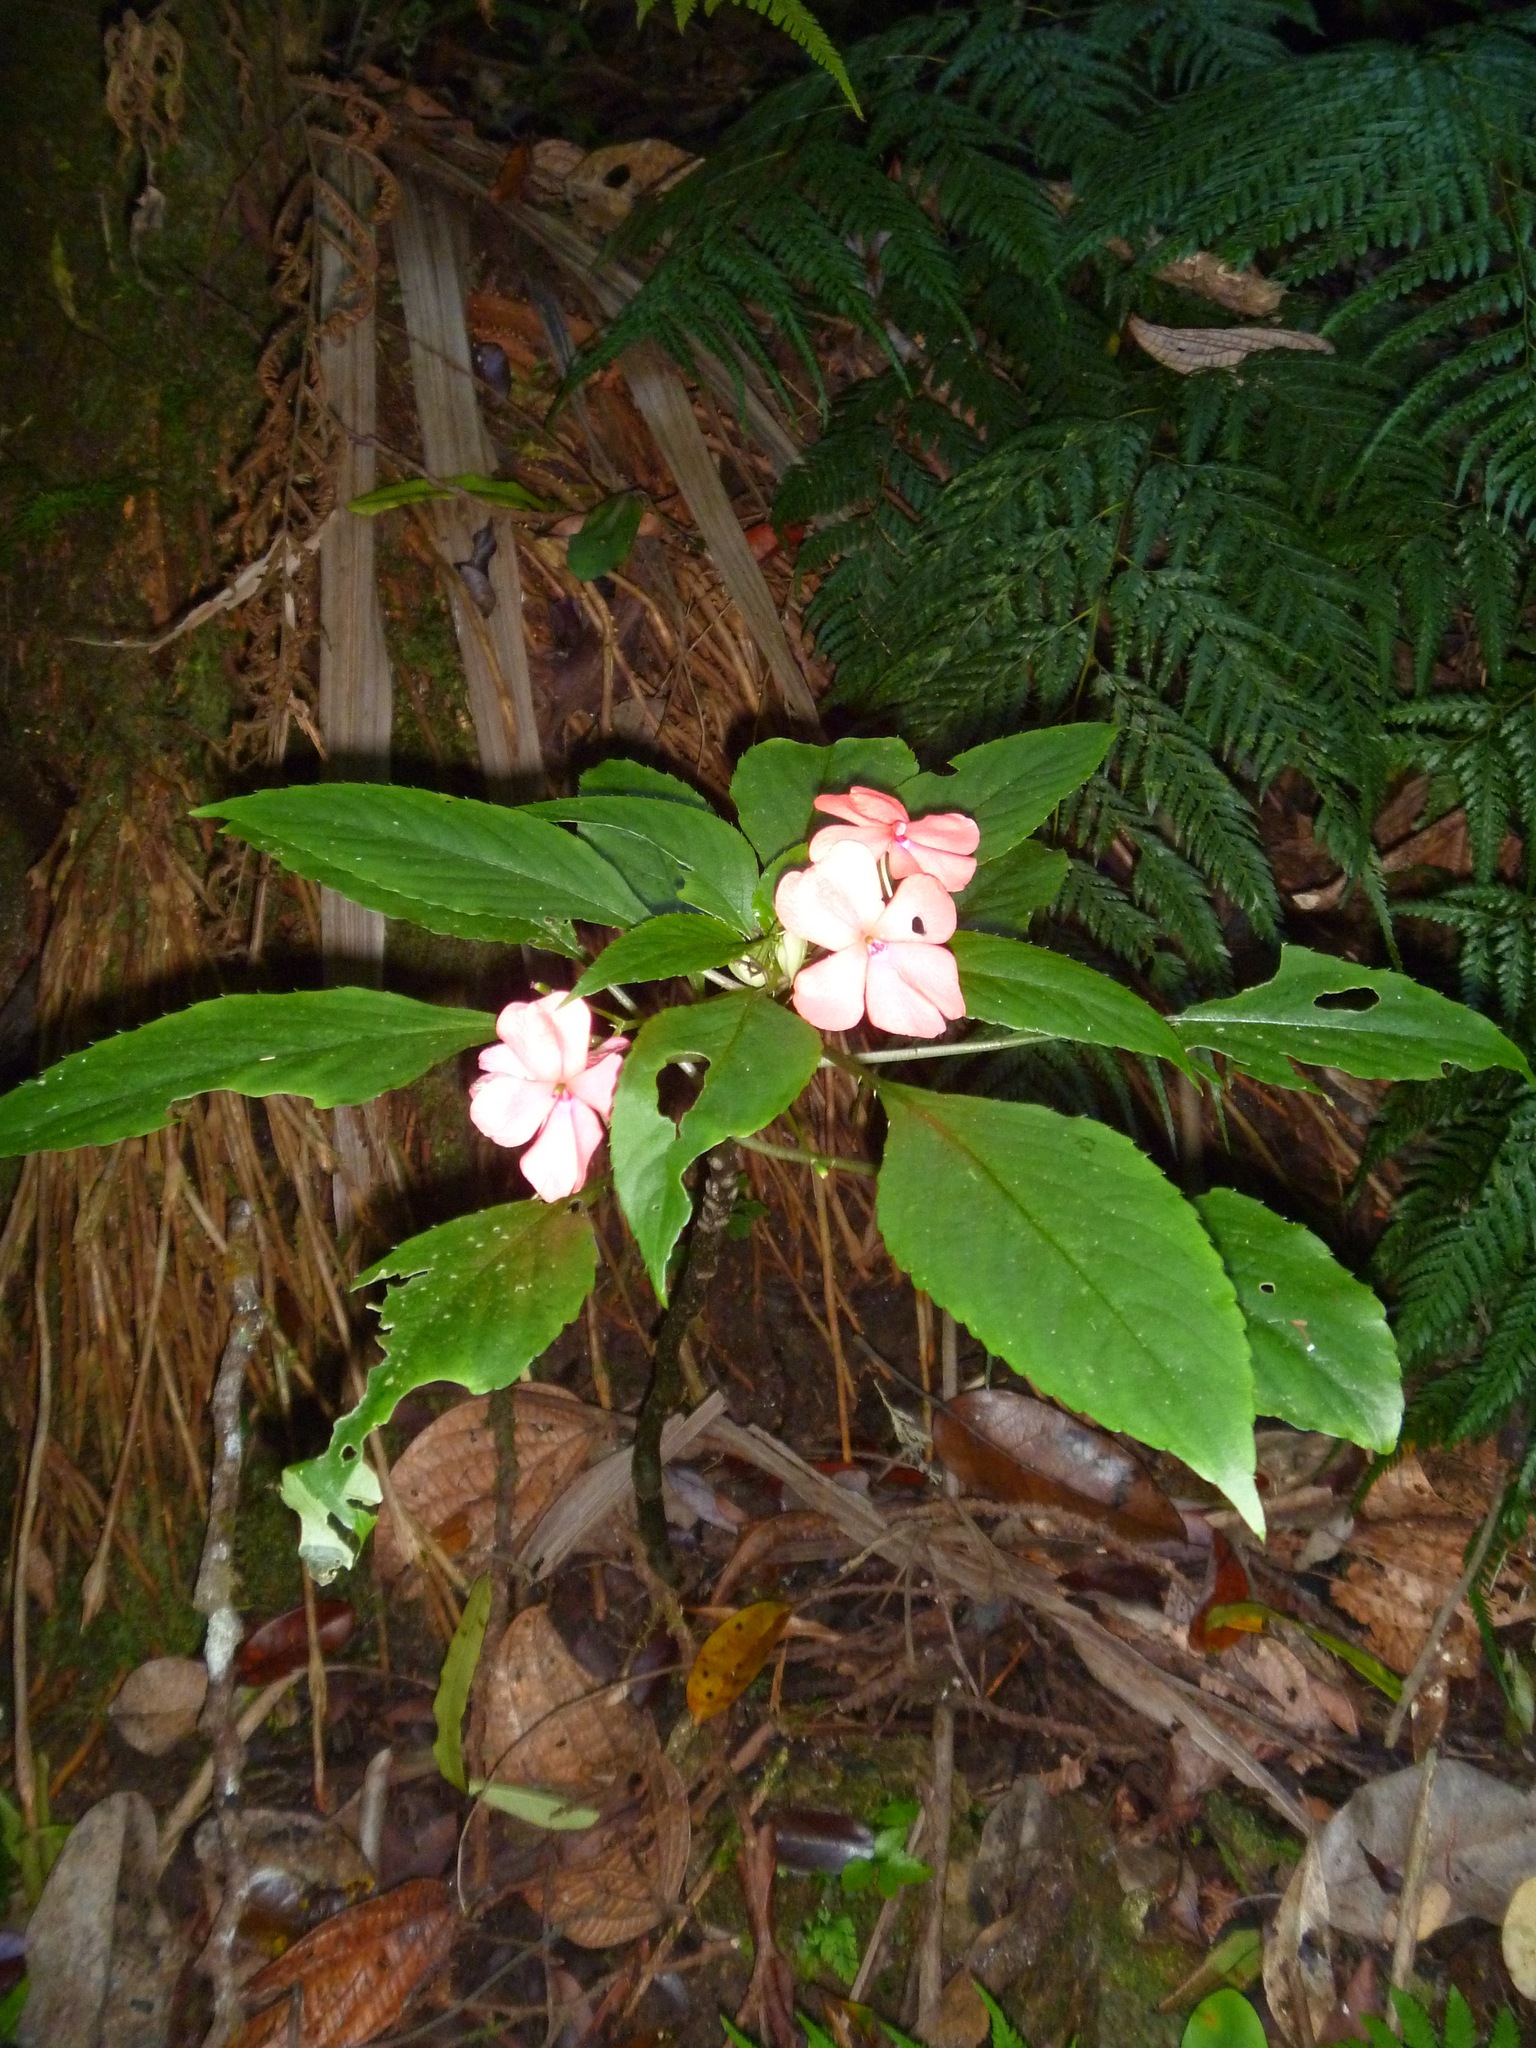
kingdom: Plantae
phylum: Tracheophyta
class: Magnoliopsida
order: Ericales
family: Balsaminaceae
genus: Impatiens
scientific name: Impatiens walleriana
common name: Buzzy lizzy
